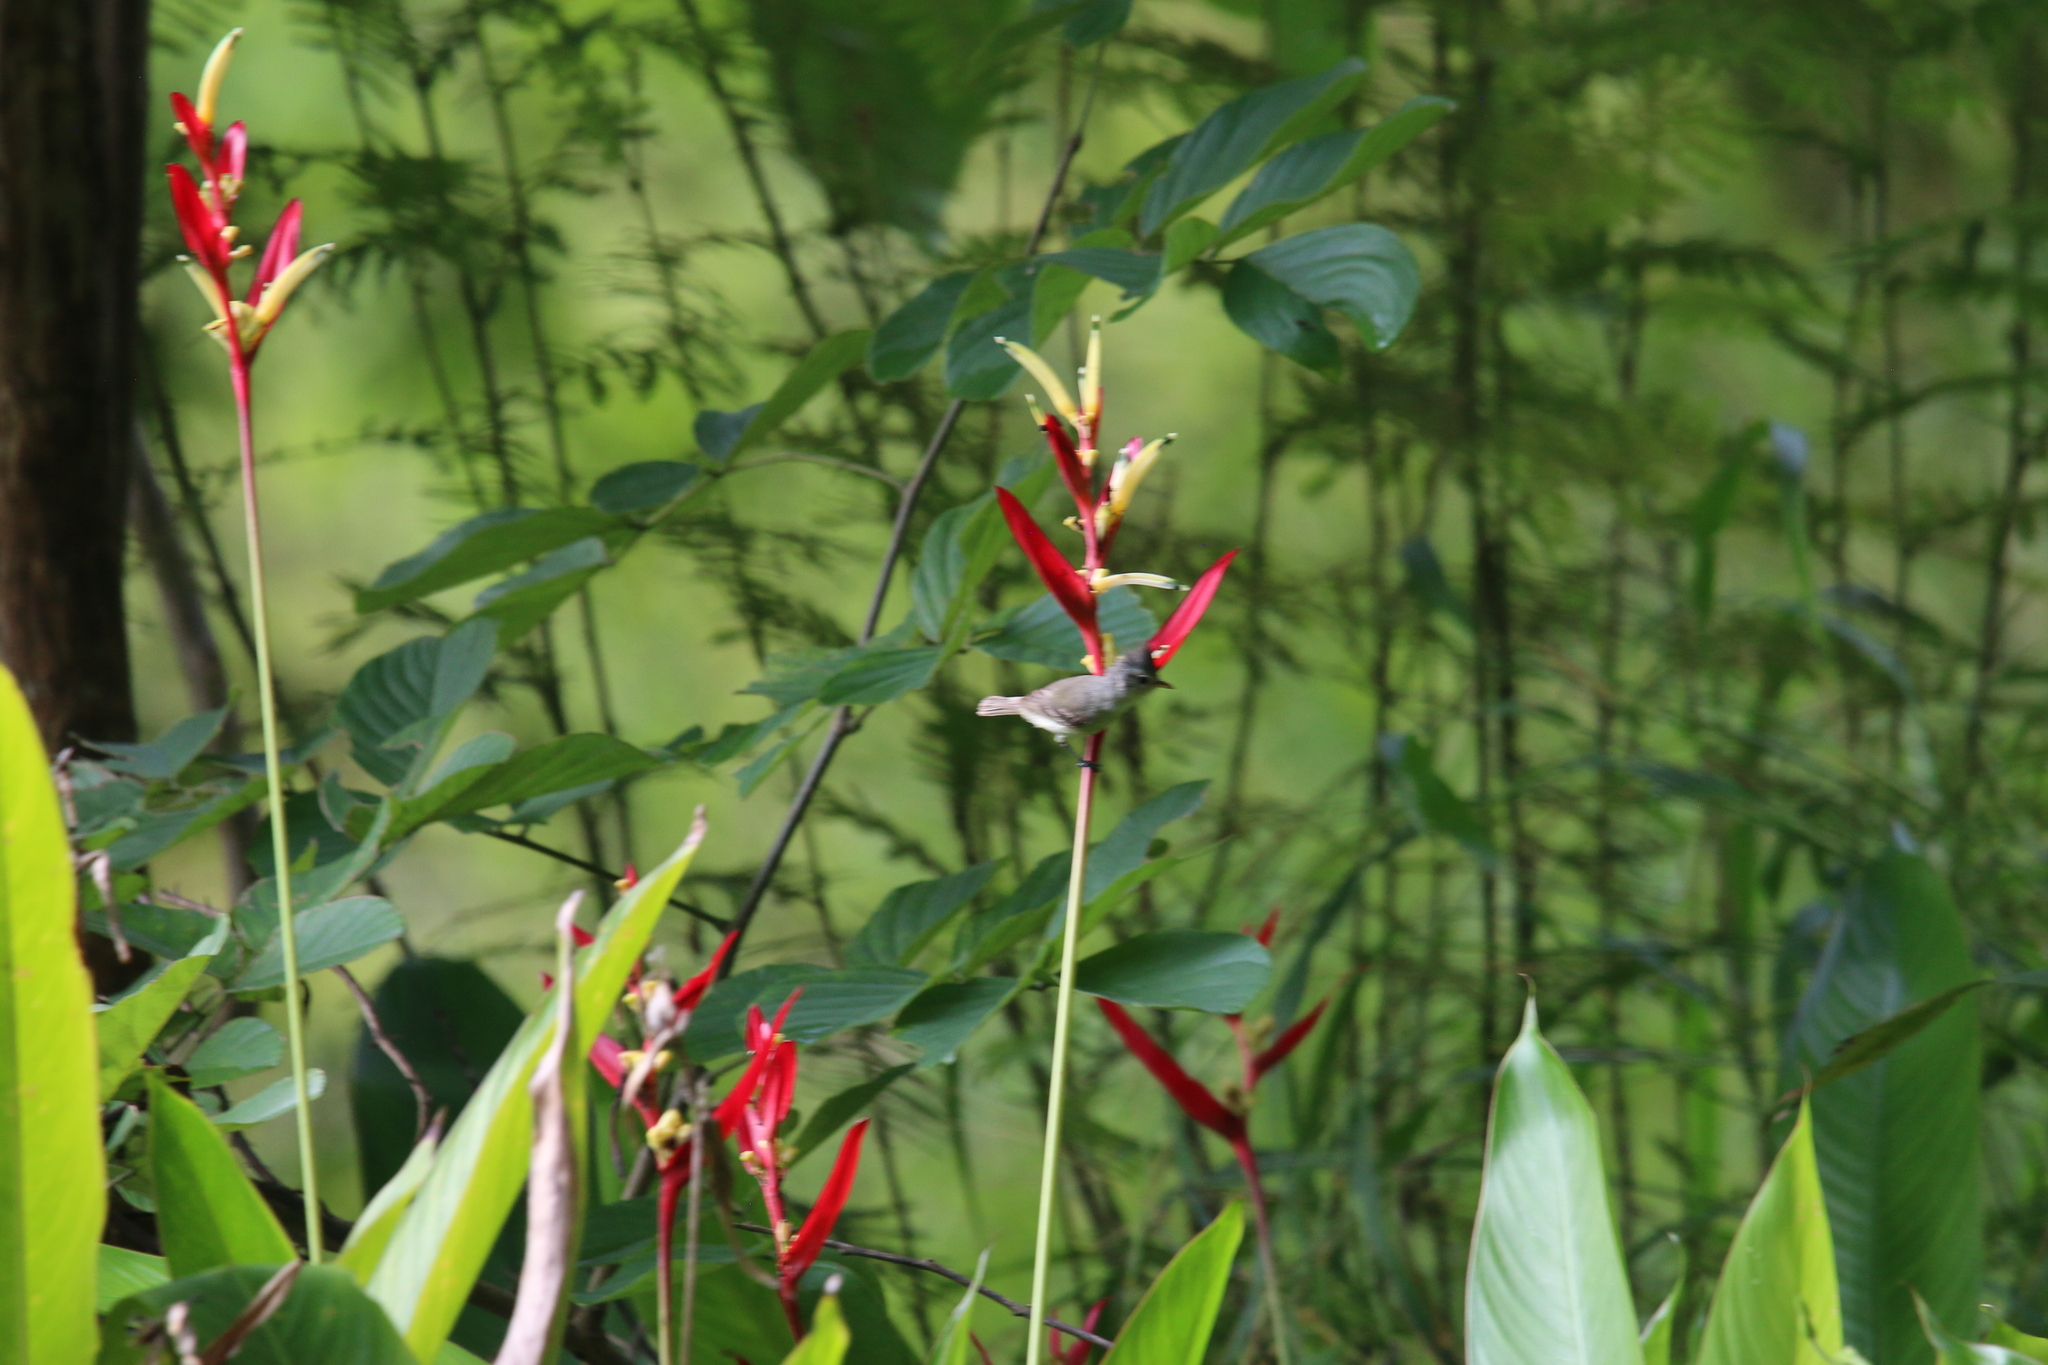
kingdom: Animalia
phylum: Chordata
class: Aves
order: Passeriformes
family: Tyrannidae
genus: Camptostoma
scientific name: Camptostoma obsoletum
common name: Southern beardless-tyrannulet
